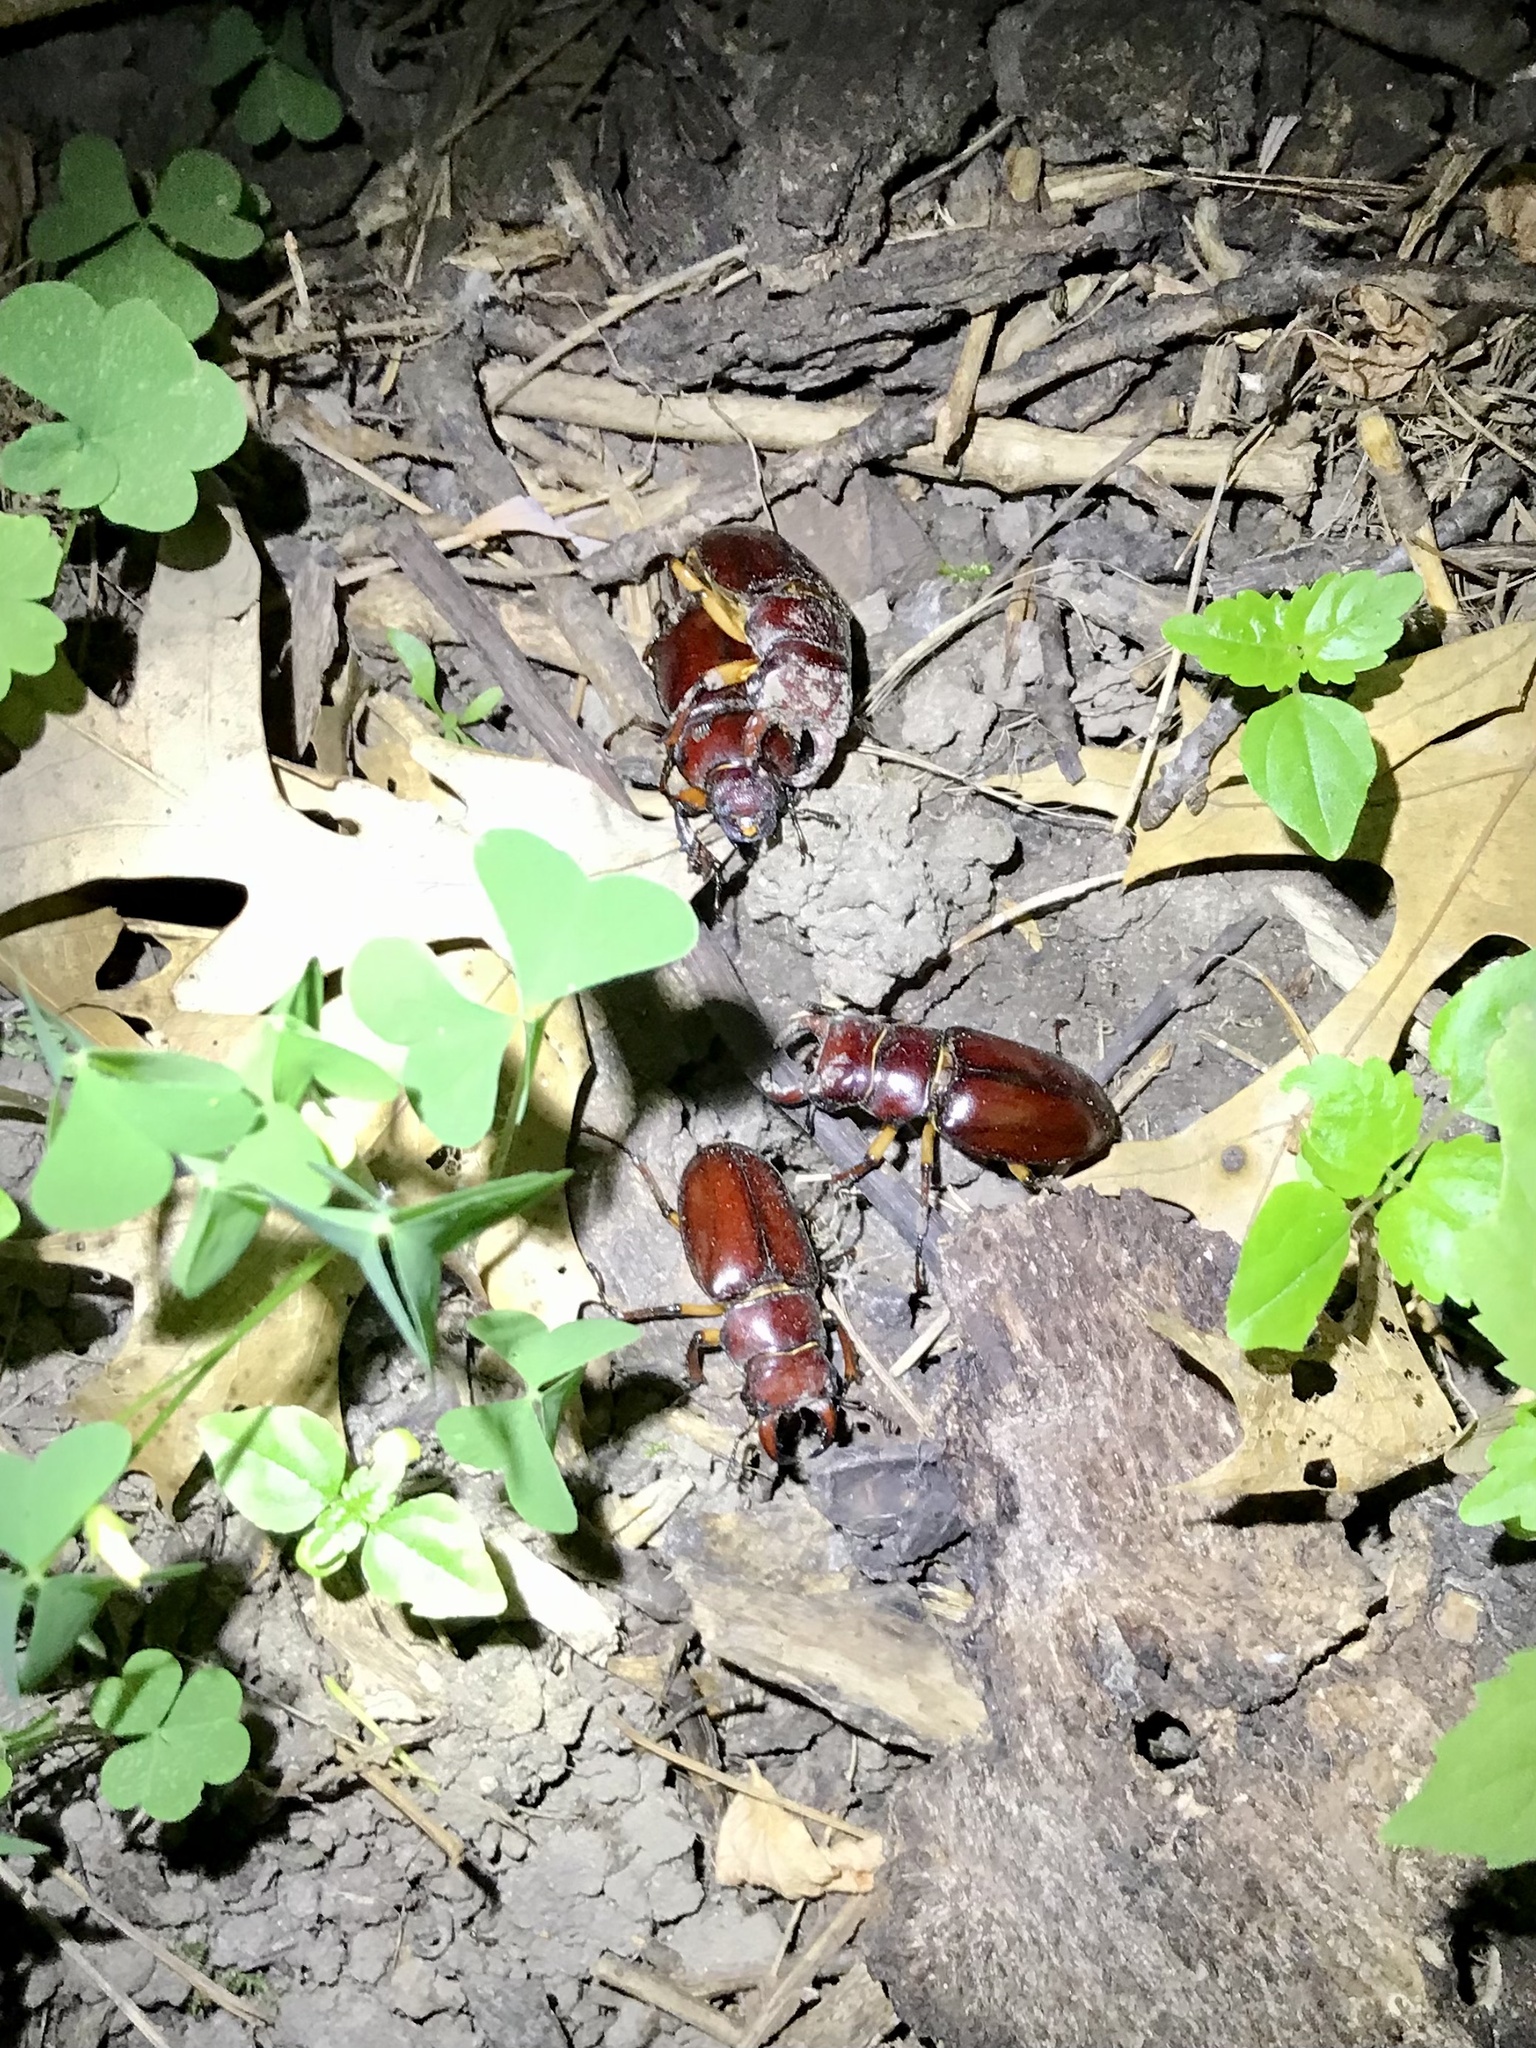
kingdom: Animalia
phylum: Arthropoda
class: Insecta
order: Coleoptera
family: Lucanidae
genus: Lucanus
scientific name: Lucanus capreolus
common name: Stag beetle
